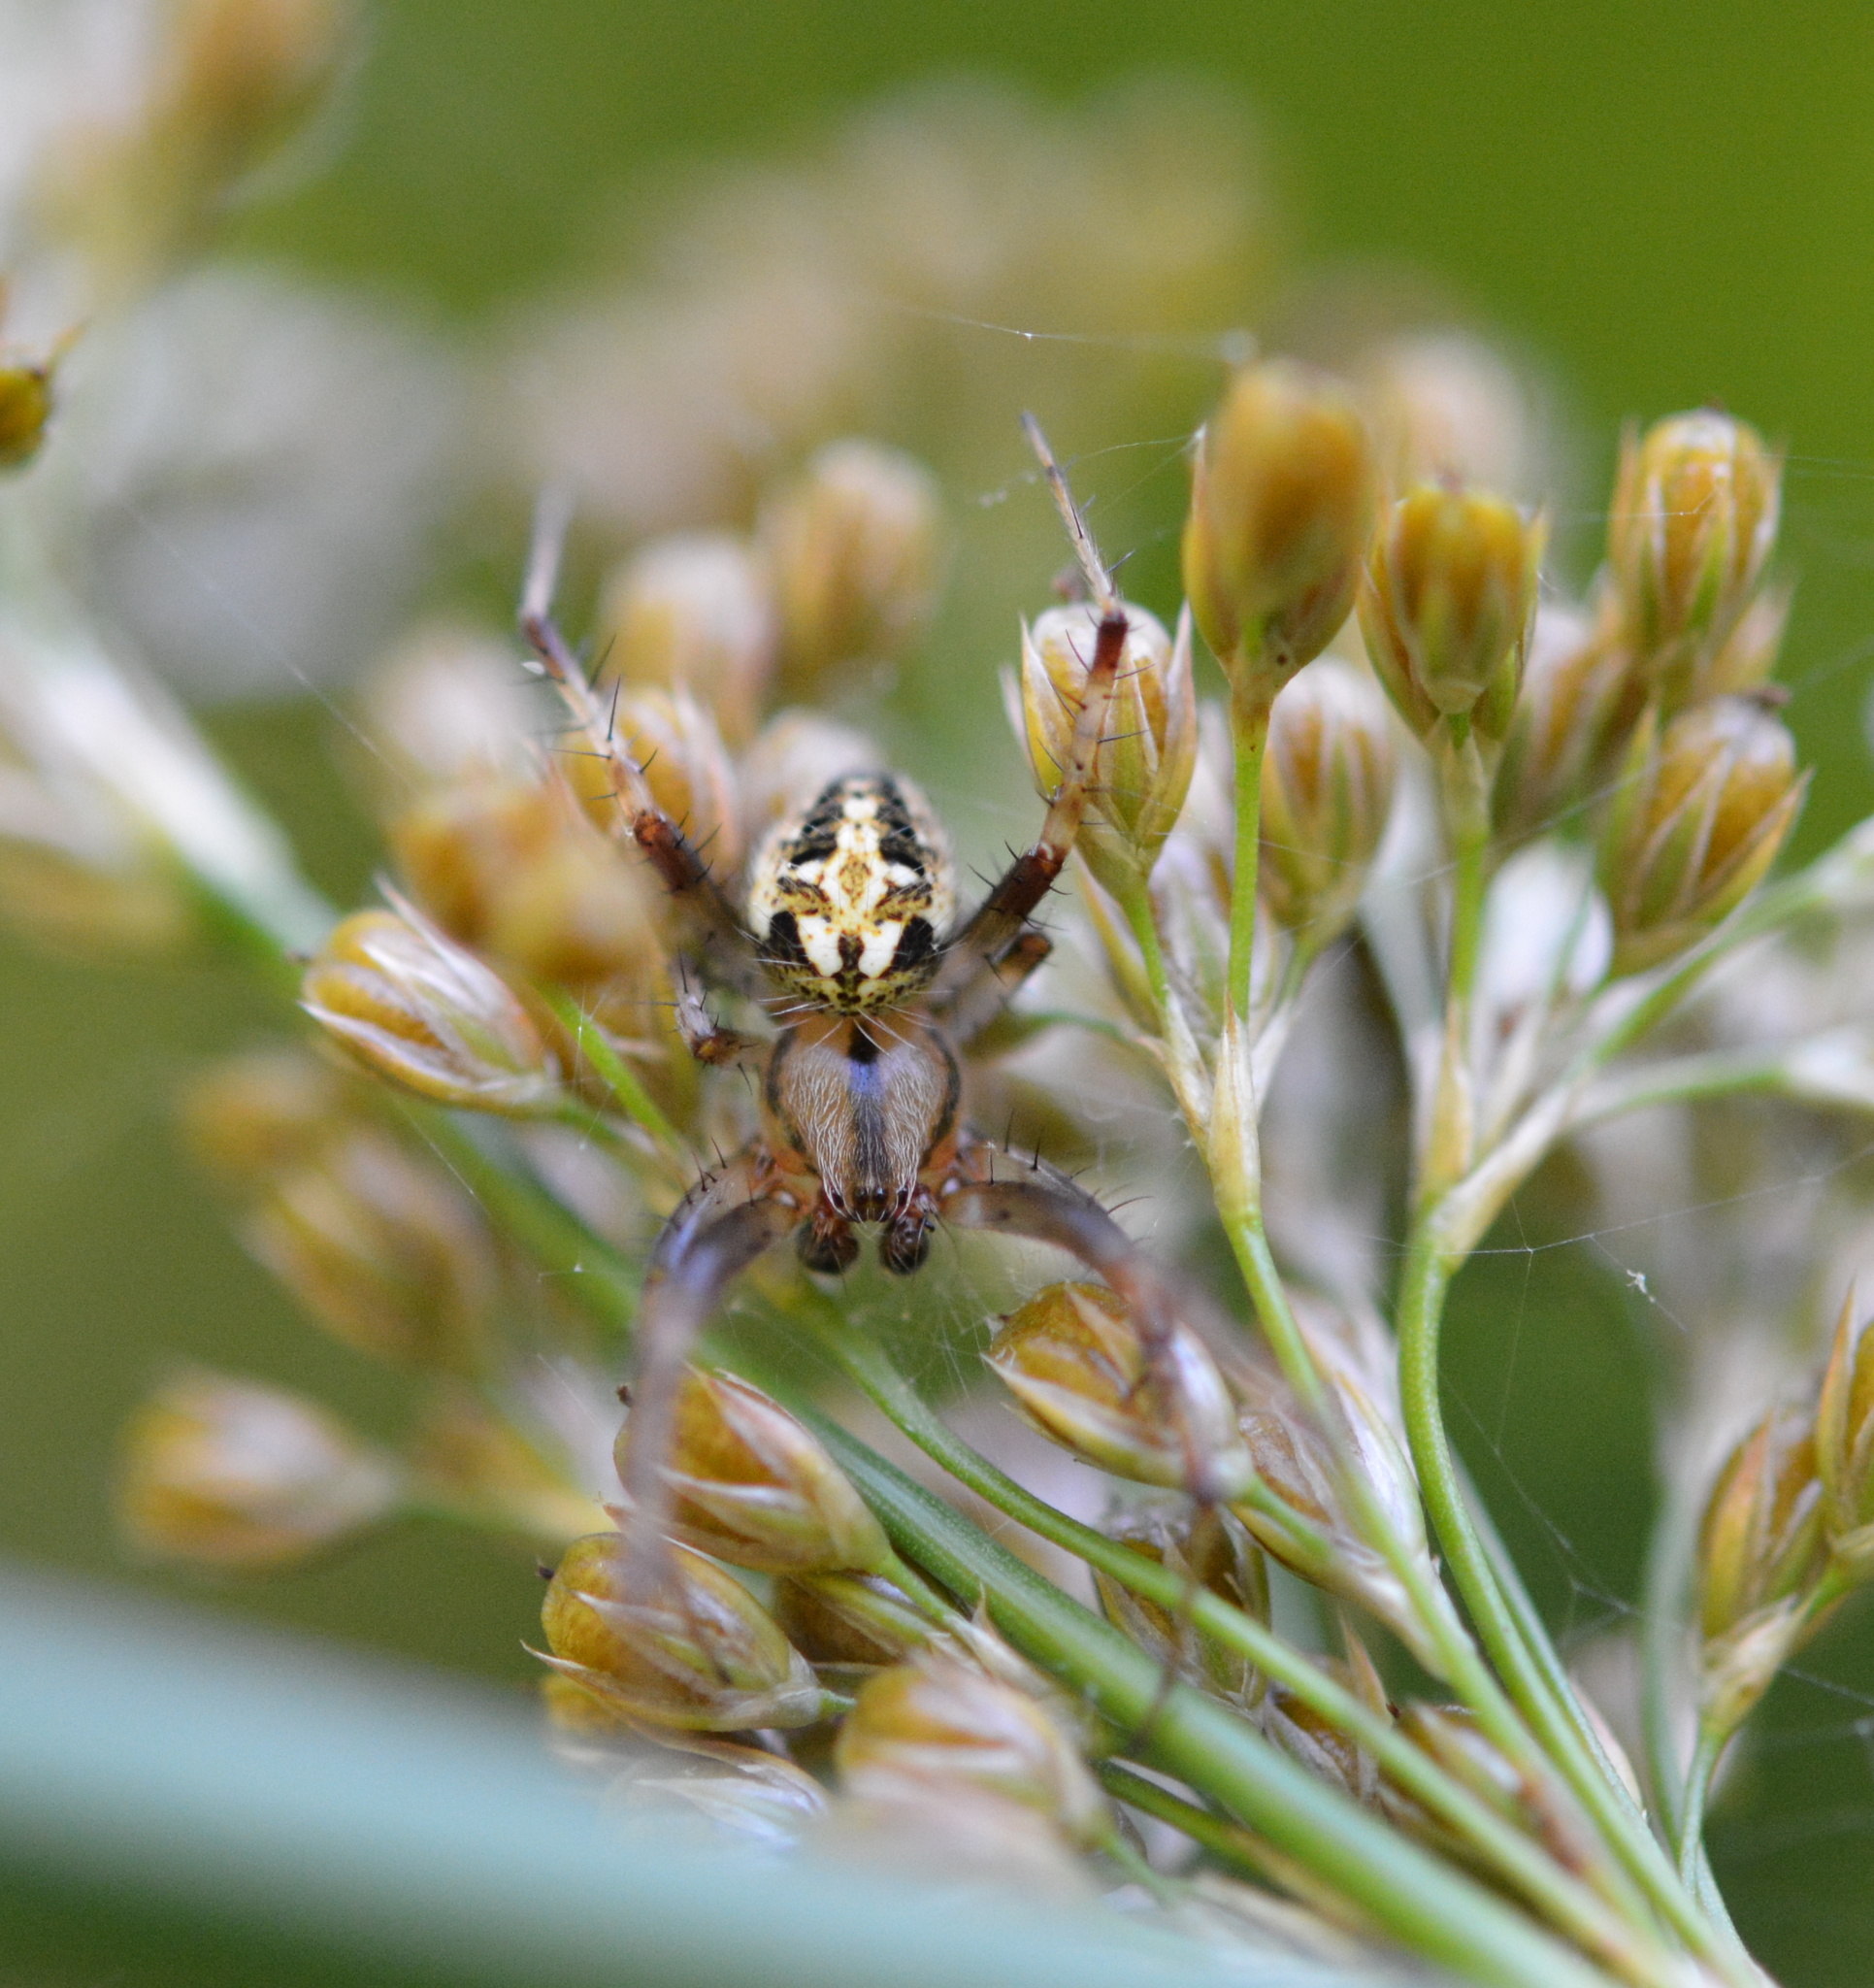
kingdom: Animalia
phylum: Arthropoda
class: Arachnida
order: Araneae
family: Araneidae
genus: Neoscona
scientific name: Neoscona arabesca
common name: Orb weavers
